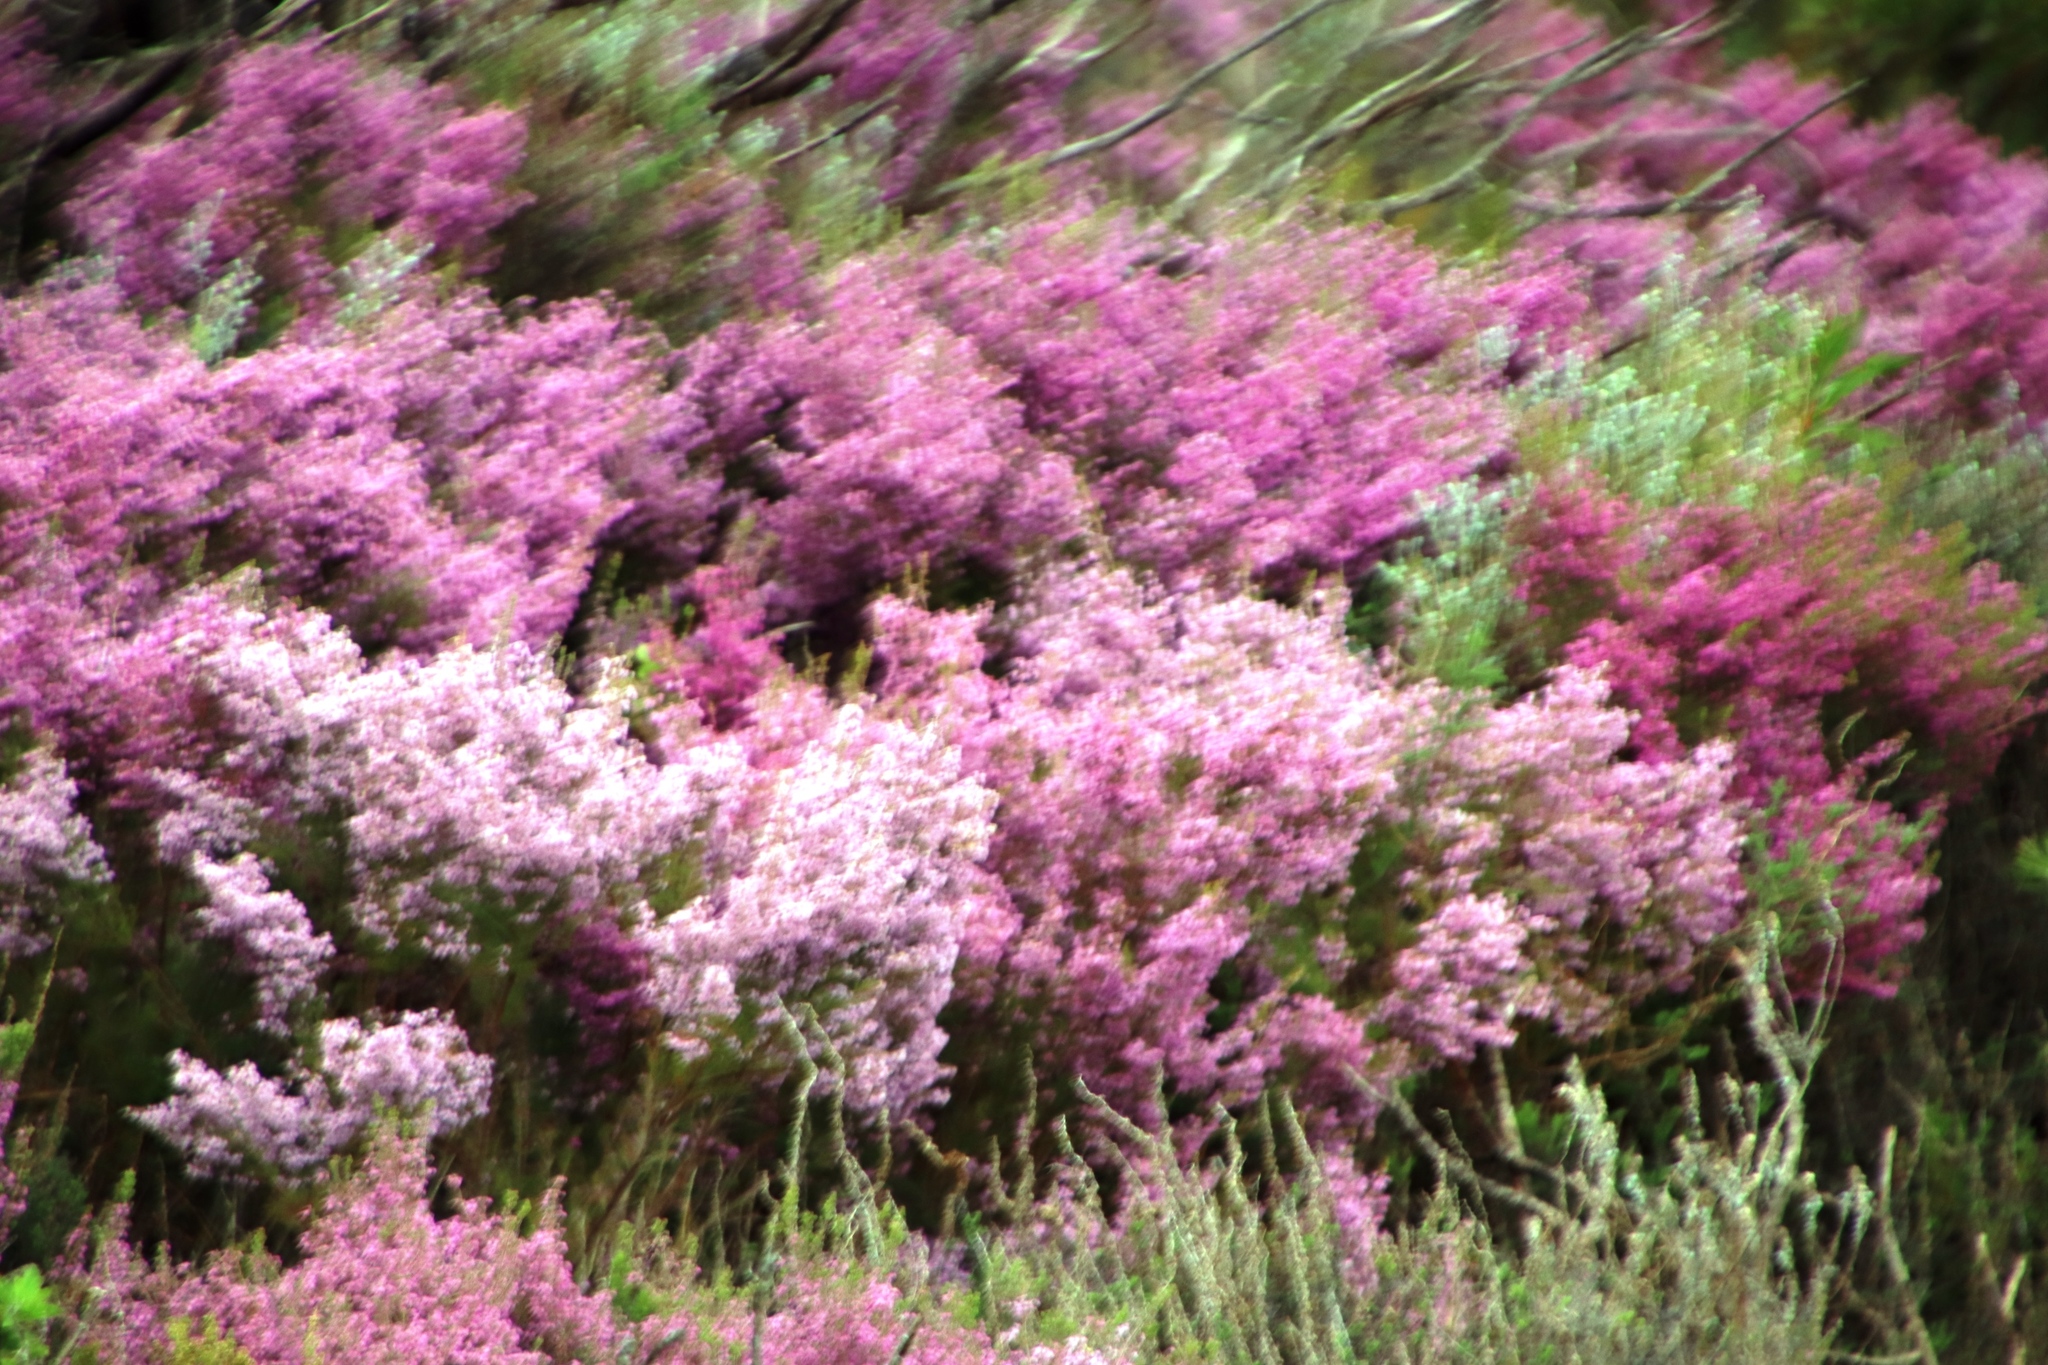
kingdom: Plantae
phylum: Tracheophyta
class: Magnoliopsida
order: Ericales
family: Ericaceae
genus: Erica
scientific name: Erica hirtiflora
